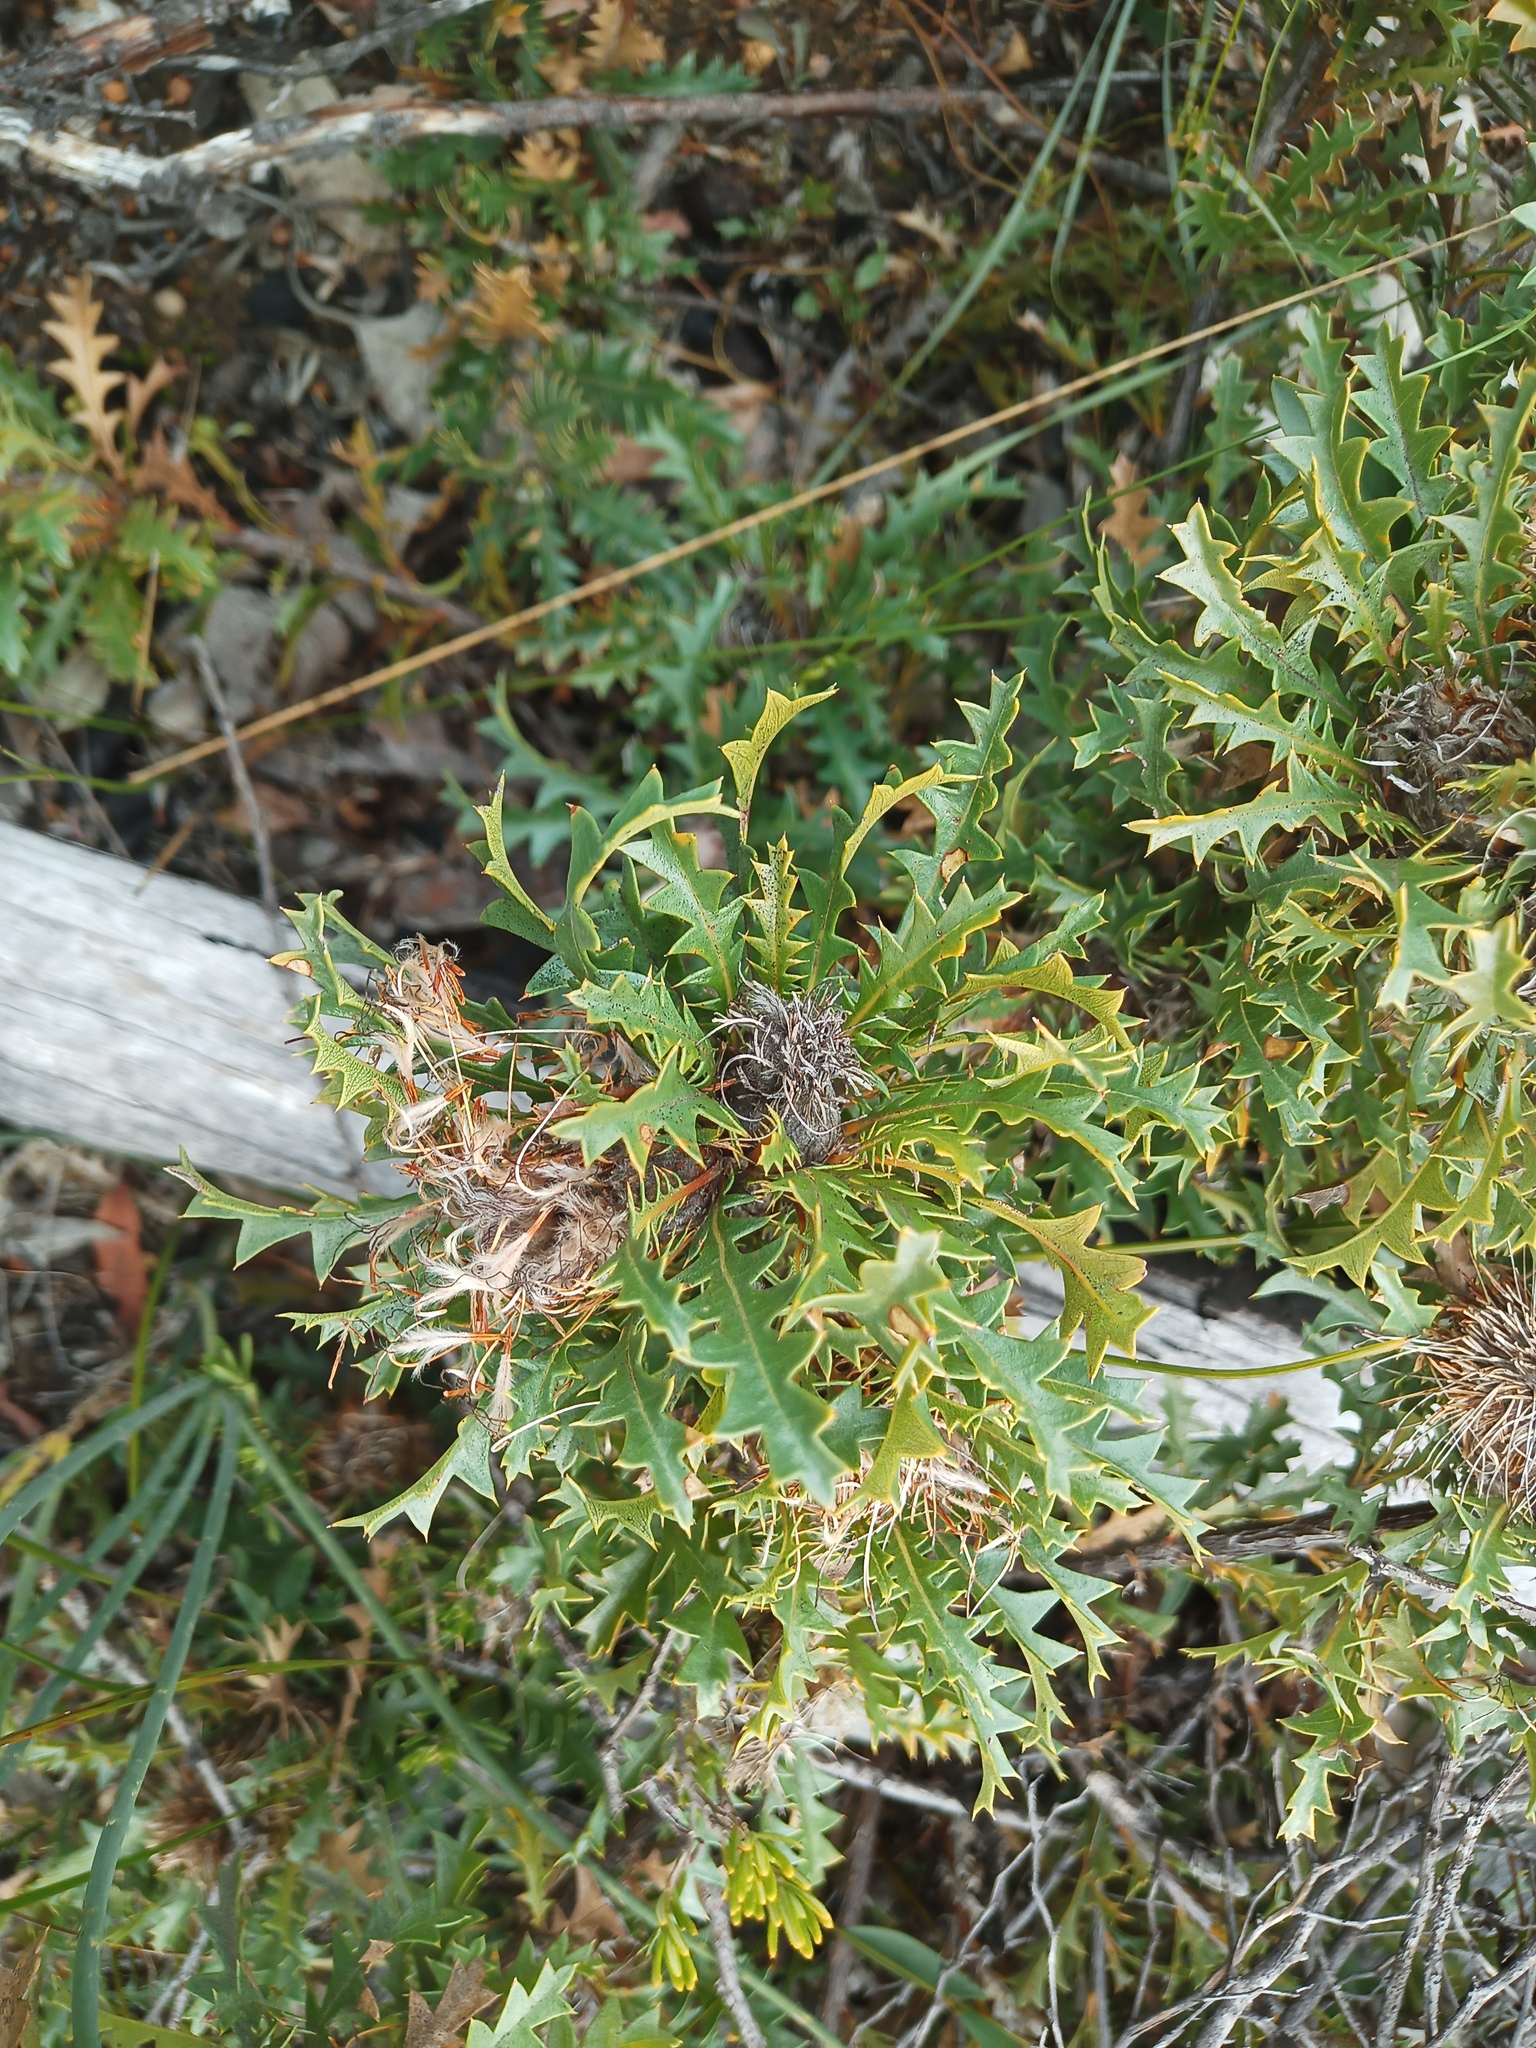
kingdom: Plantae
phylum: Tracheophyta
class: Magnoliopsida
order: Proteales
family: Proteaceae
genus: Banksia
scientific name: Banksia armata
